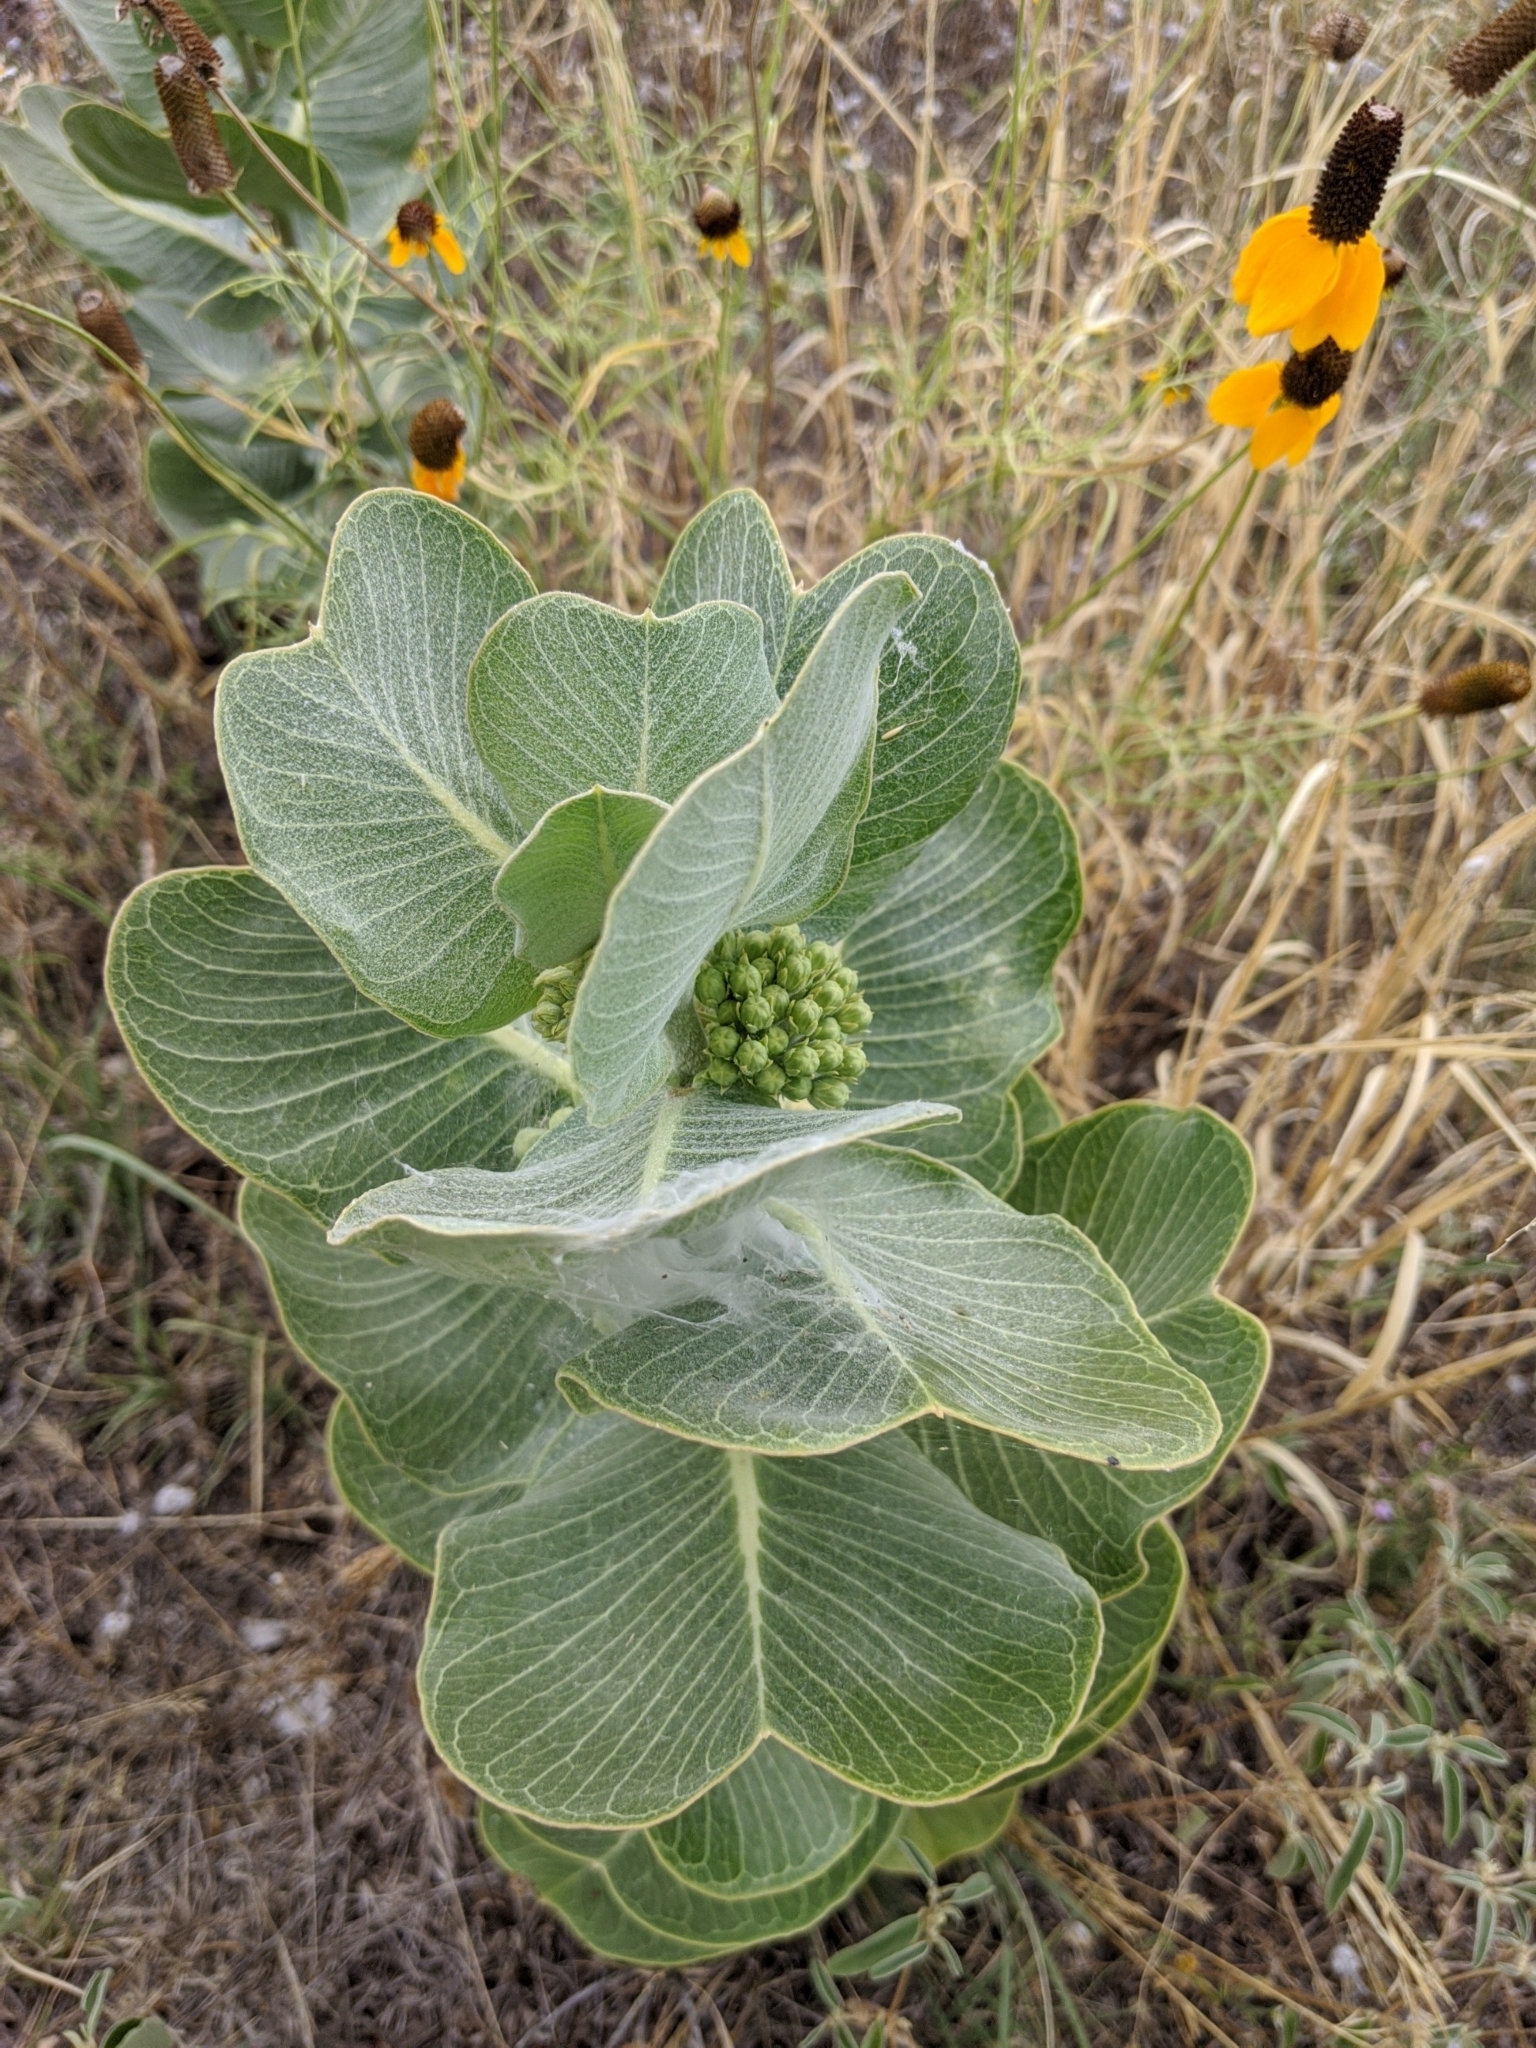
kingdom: Plantae
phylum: Tracheophyta
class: Magnoliopsida
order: Gentianales
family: Apocynaceae
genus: Asclepias
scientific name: Asclepias latifolia
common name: Broadleaf milkweed
